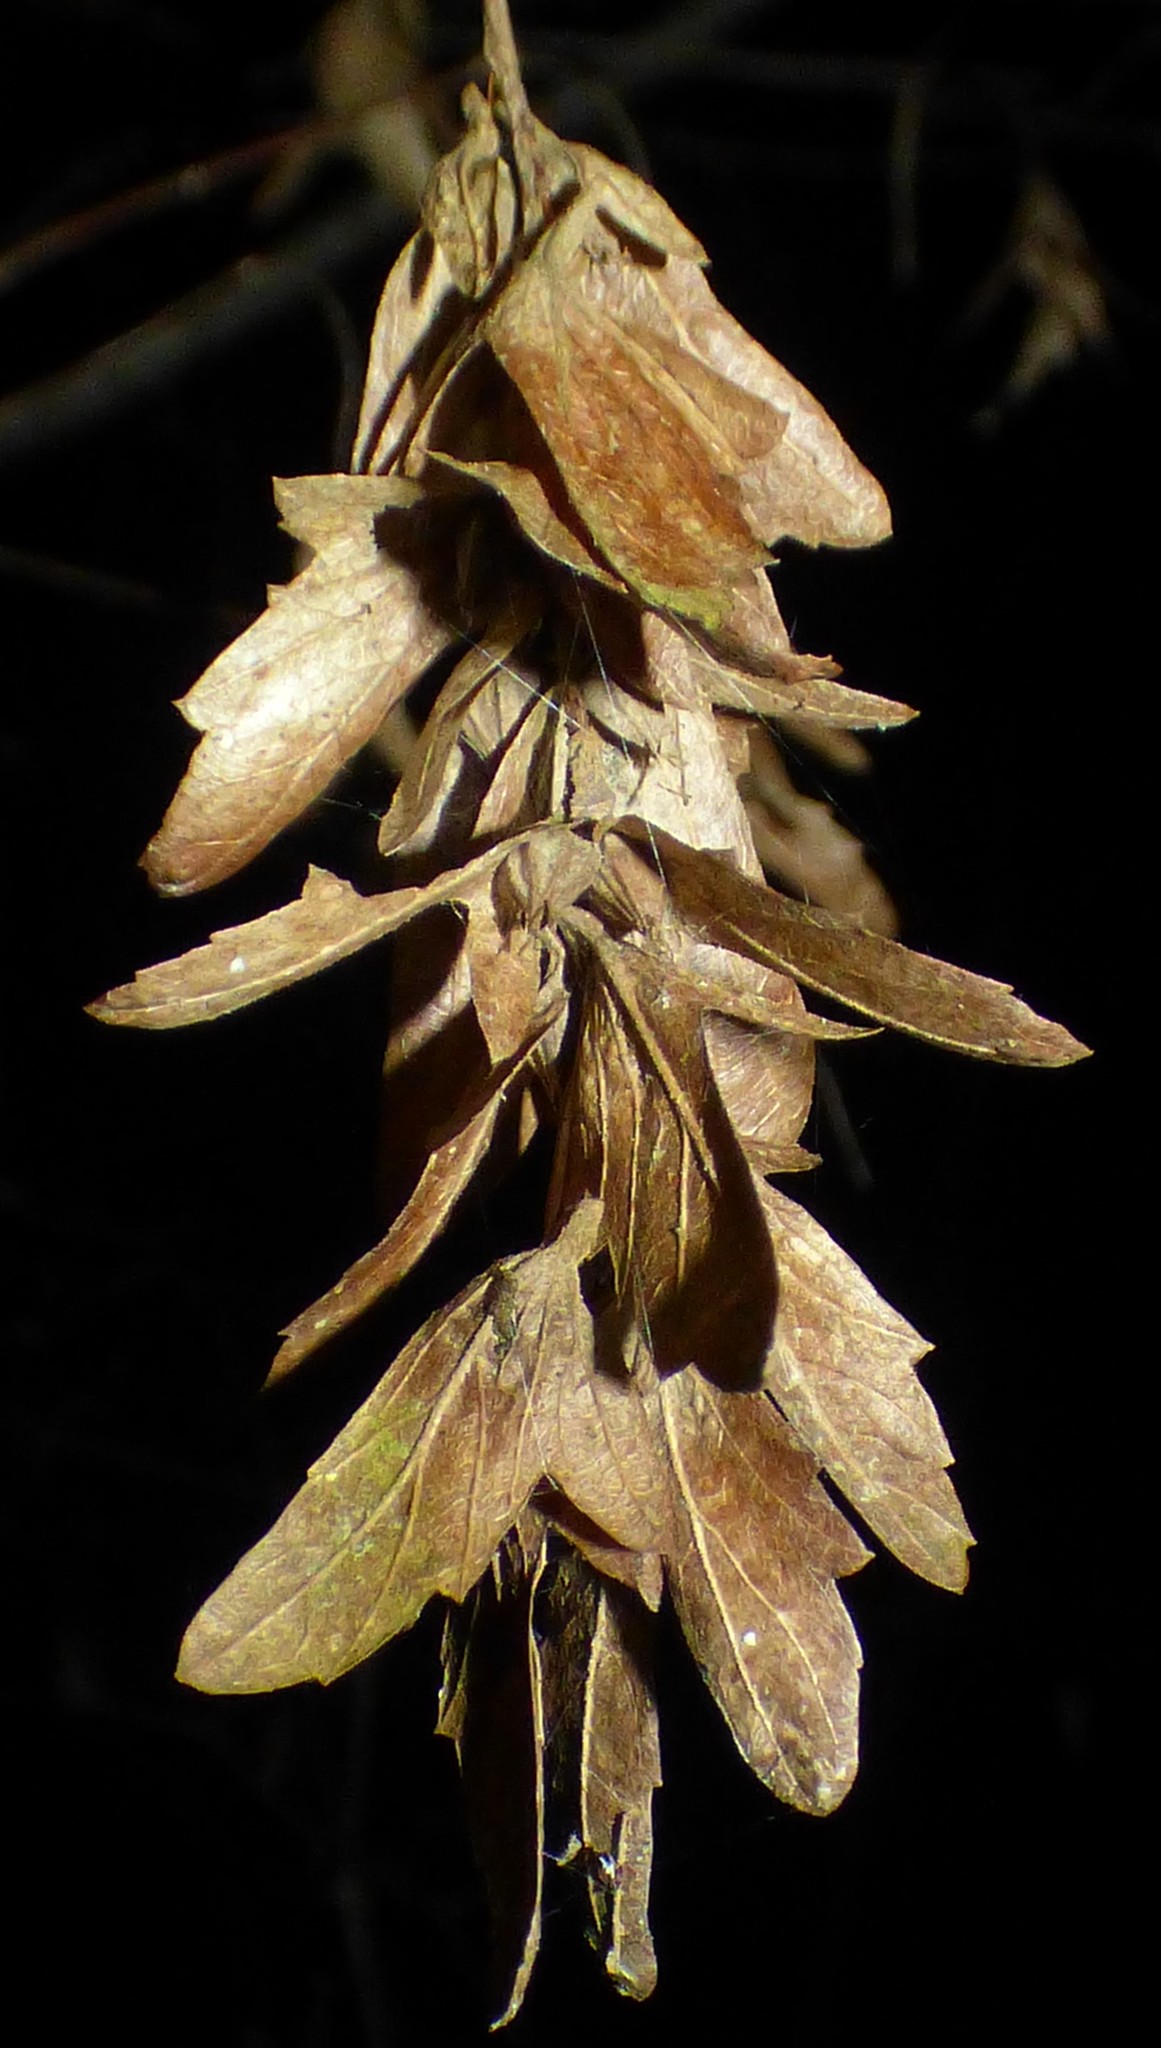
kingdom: Plantae
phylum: Tracheophyta
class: Magnoliopsida
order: Fagales
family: Betulaceae
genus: Carpinus
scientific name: Carpinus caroliniana
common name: American hornbeam
